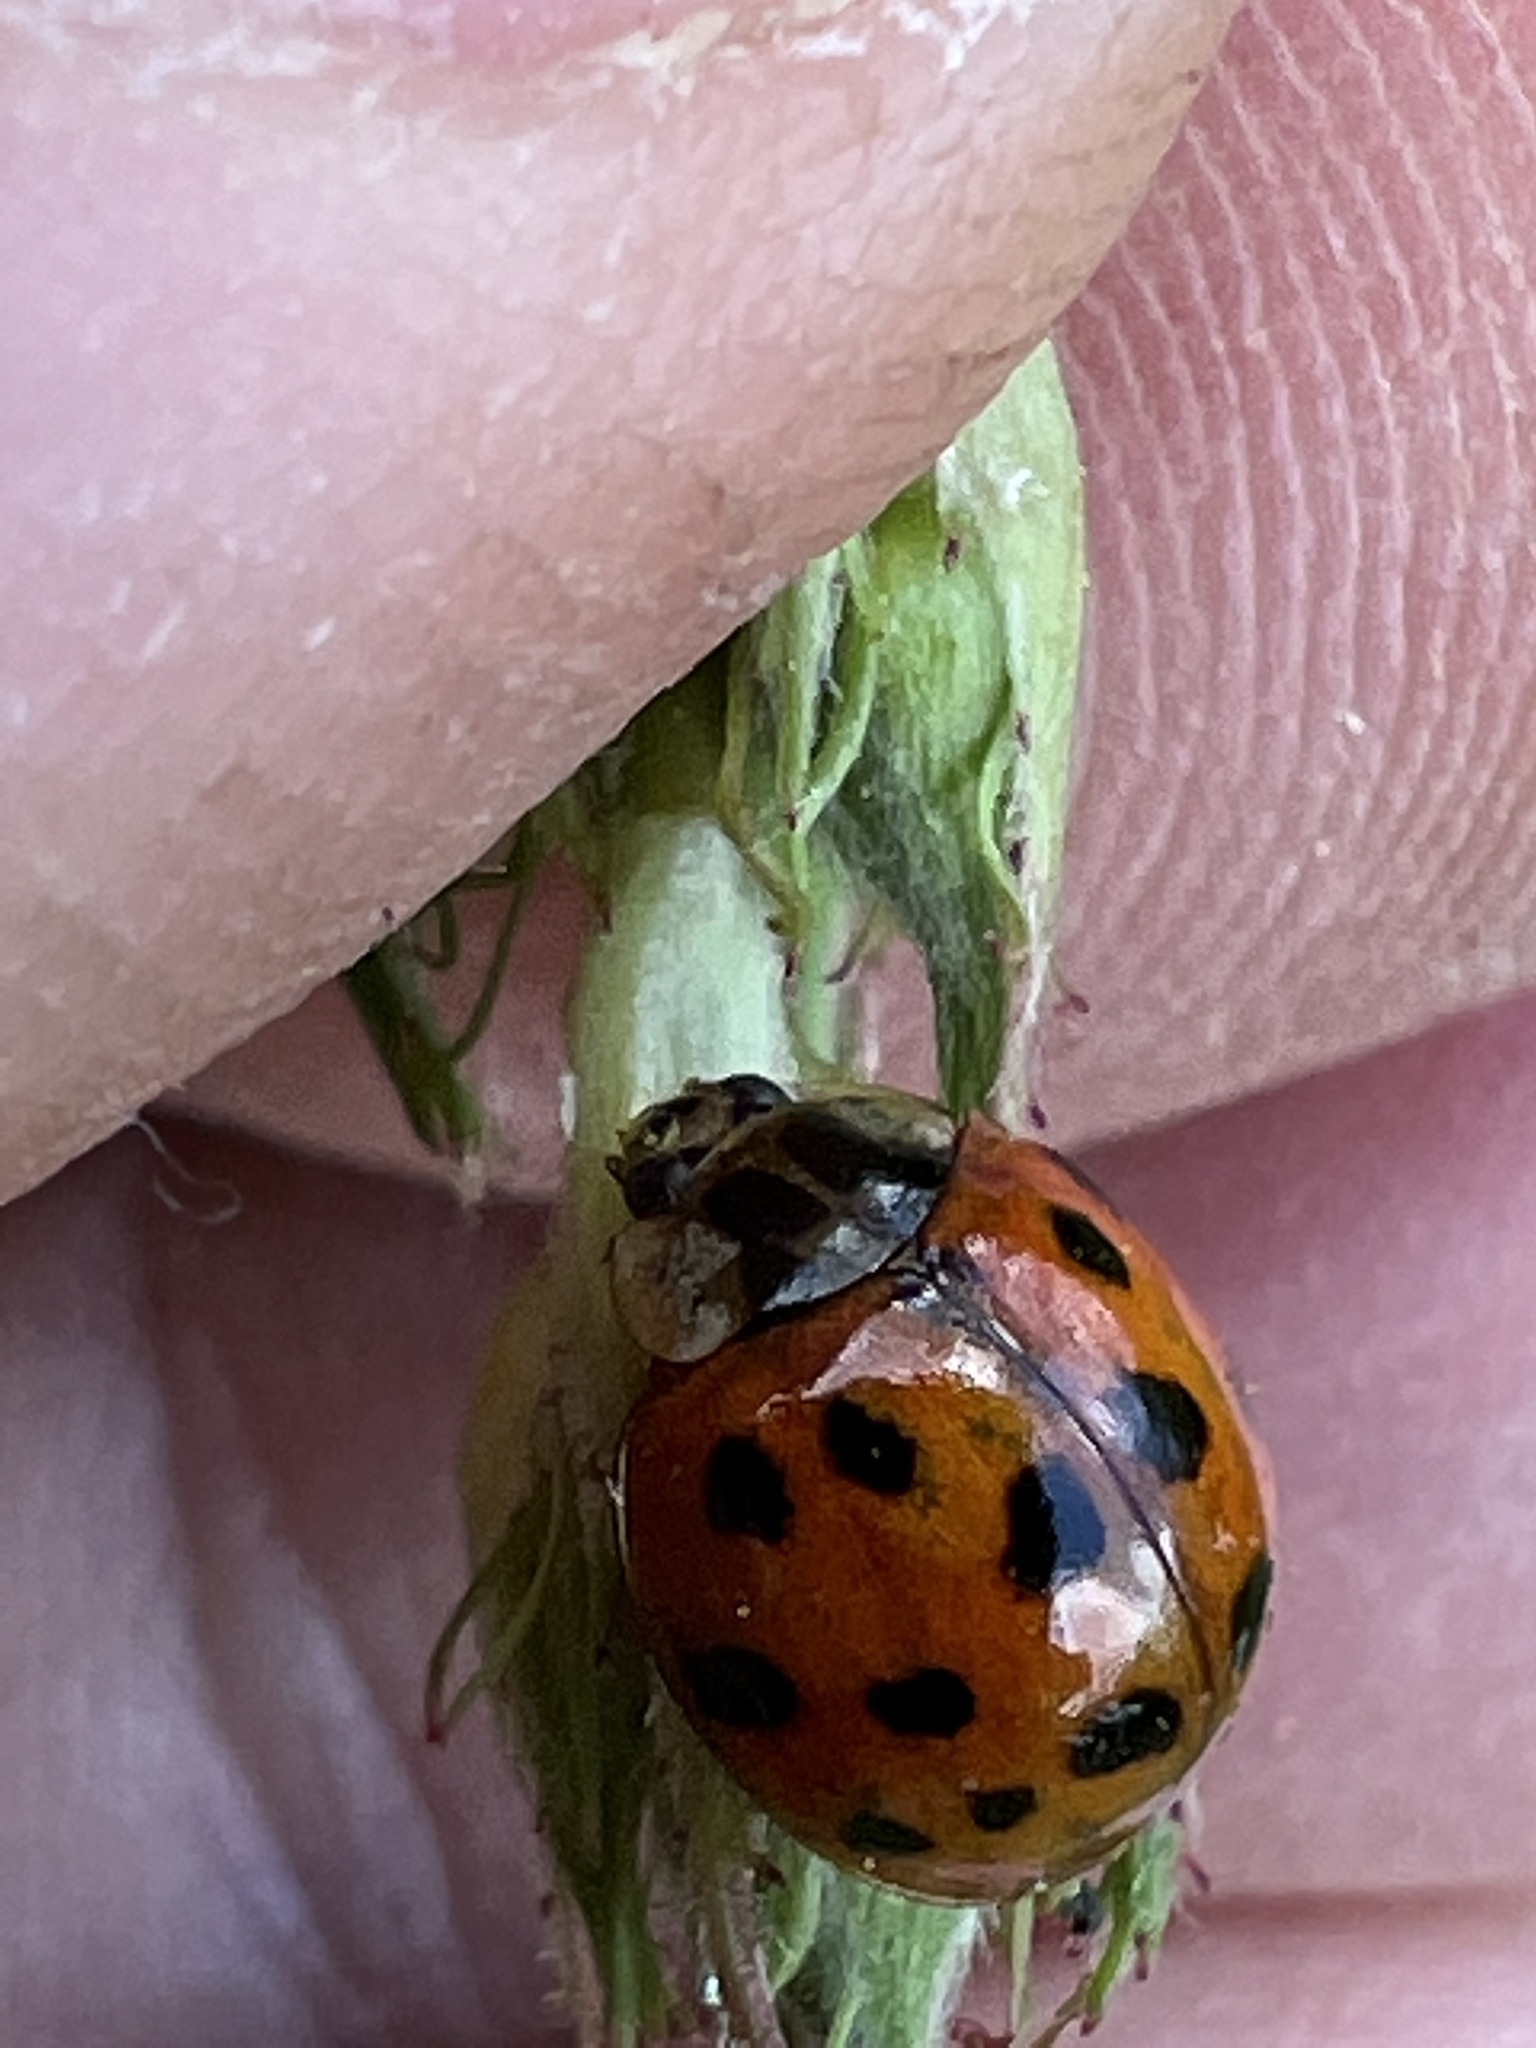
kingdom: Animalia
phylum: Arthropoda
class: Insecta
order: Coleoptera
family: Coccinellidae
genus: Harmonia
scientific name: Harmonia axyridis
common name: Harlequin ladybird
